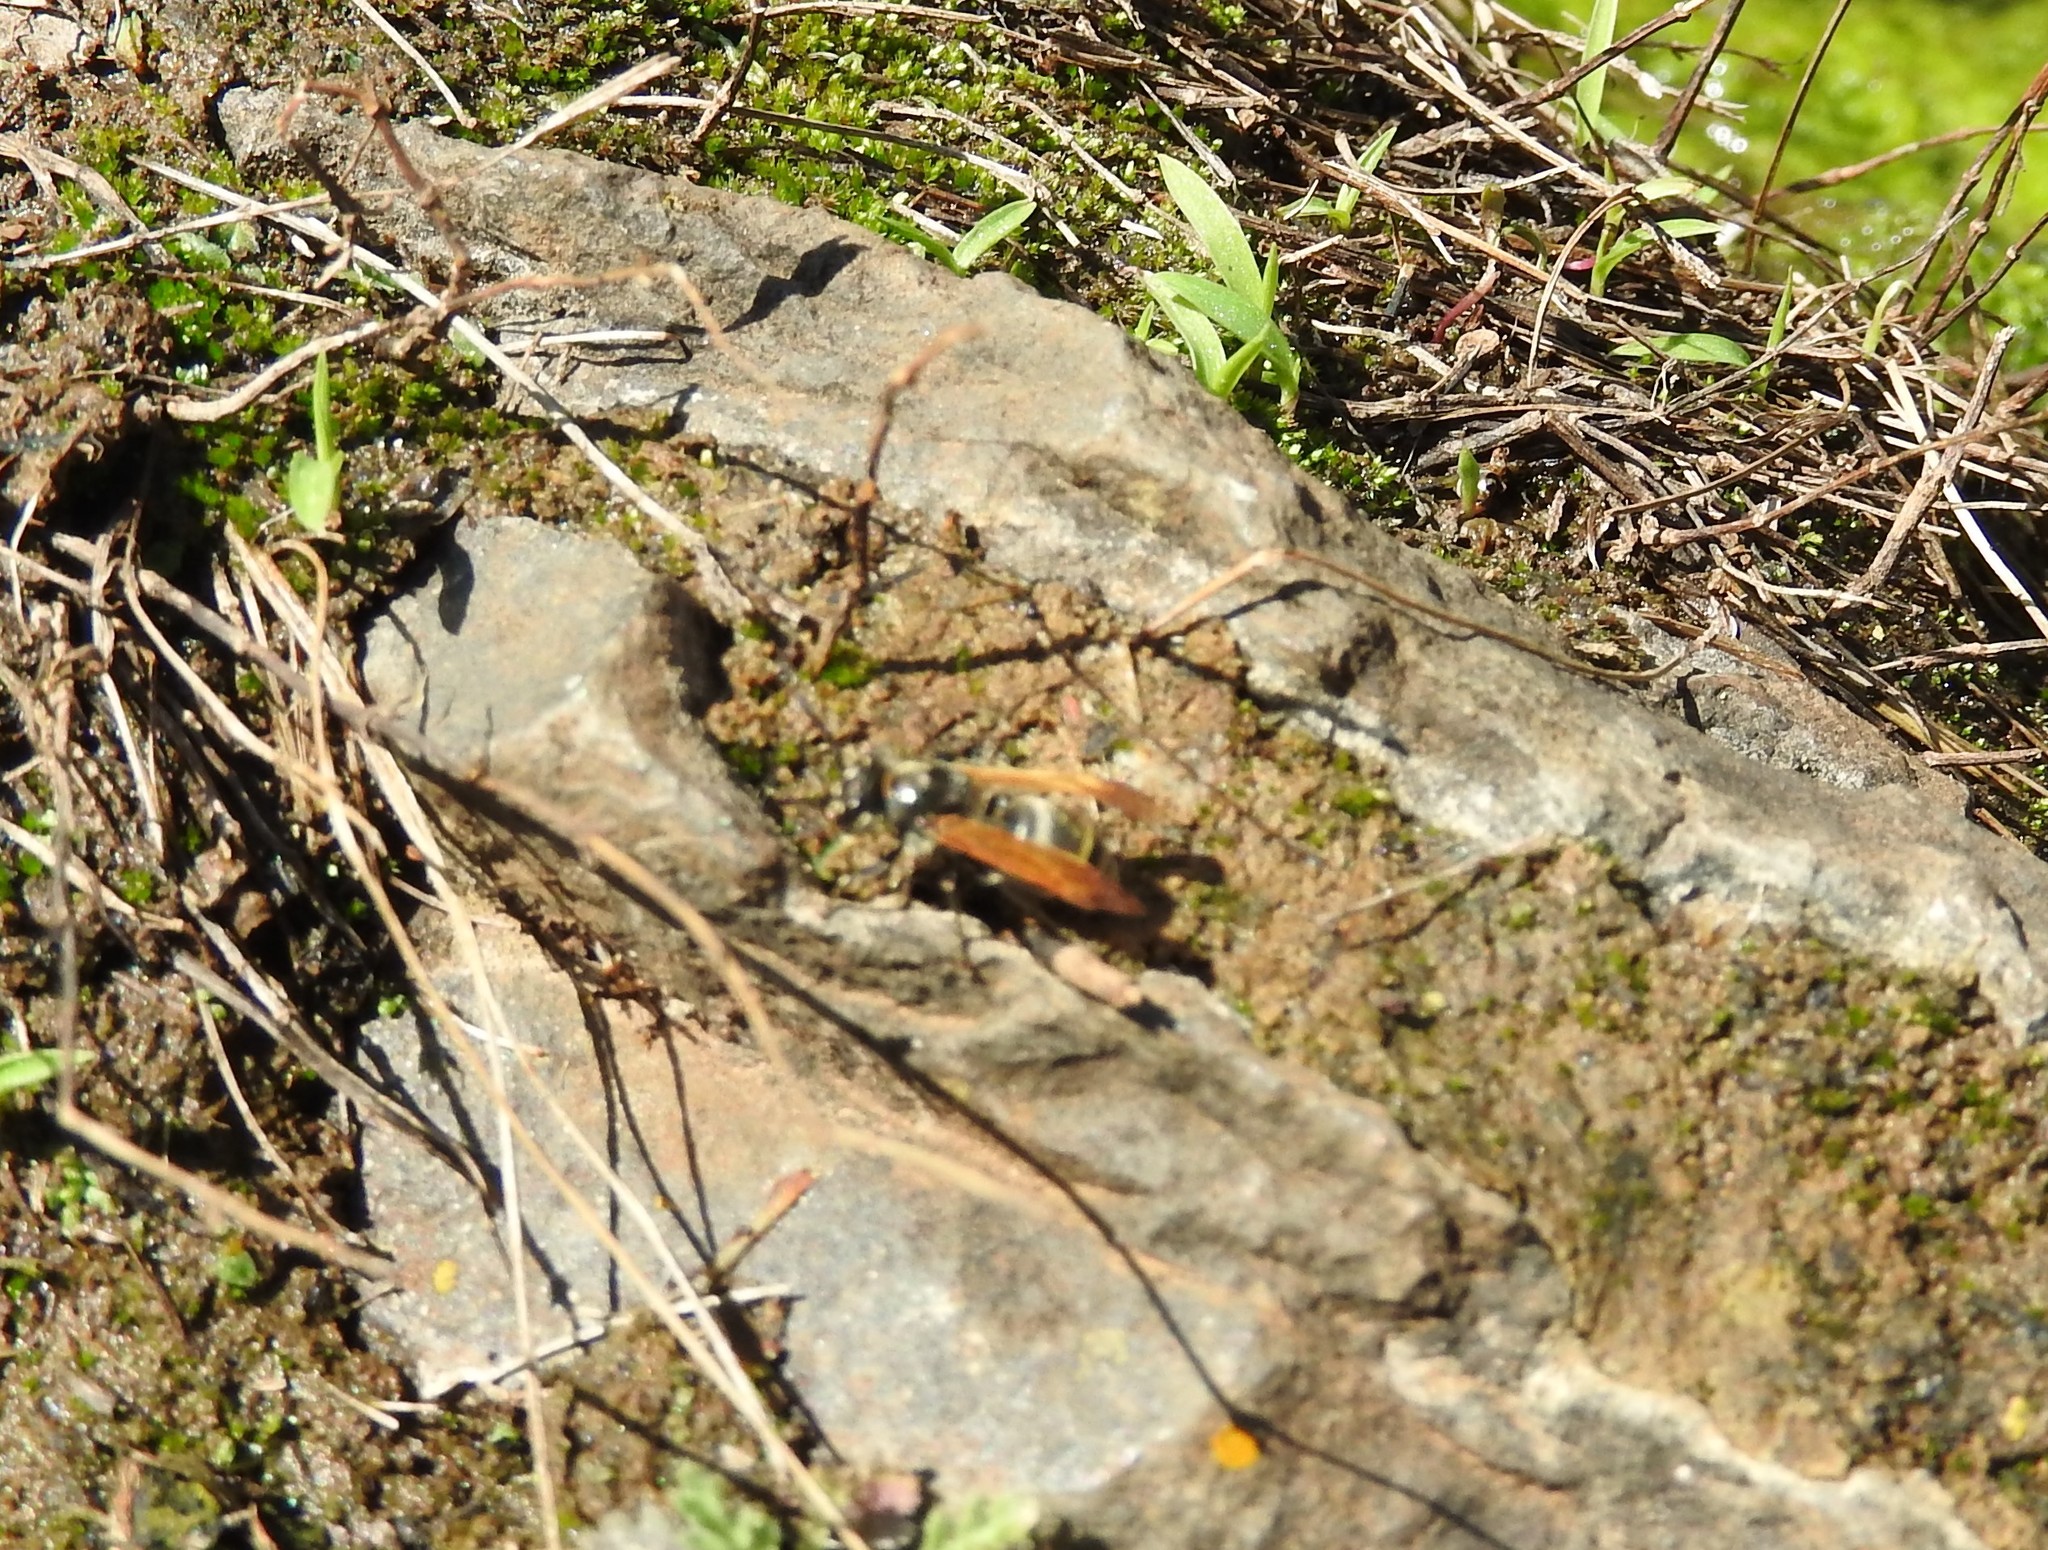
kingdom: Animalia
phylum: Arthropoda
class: Insecta
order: Hymenoptera
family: Vespidae
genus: Brachygastra
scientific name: Brachygastra mellifica
